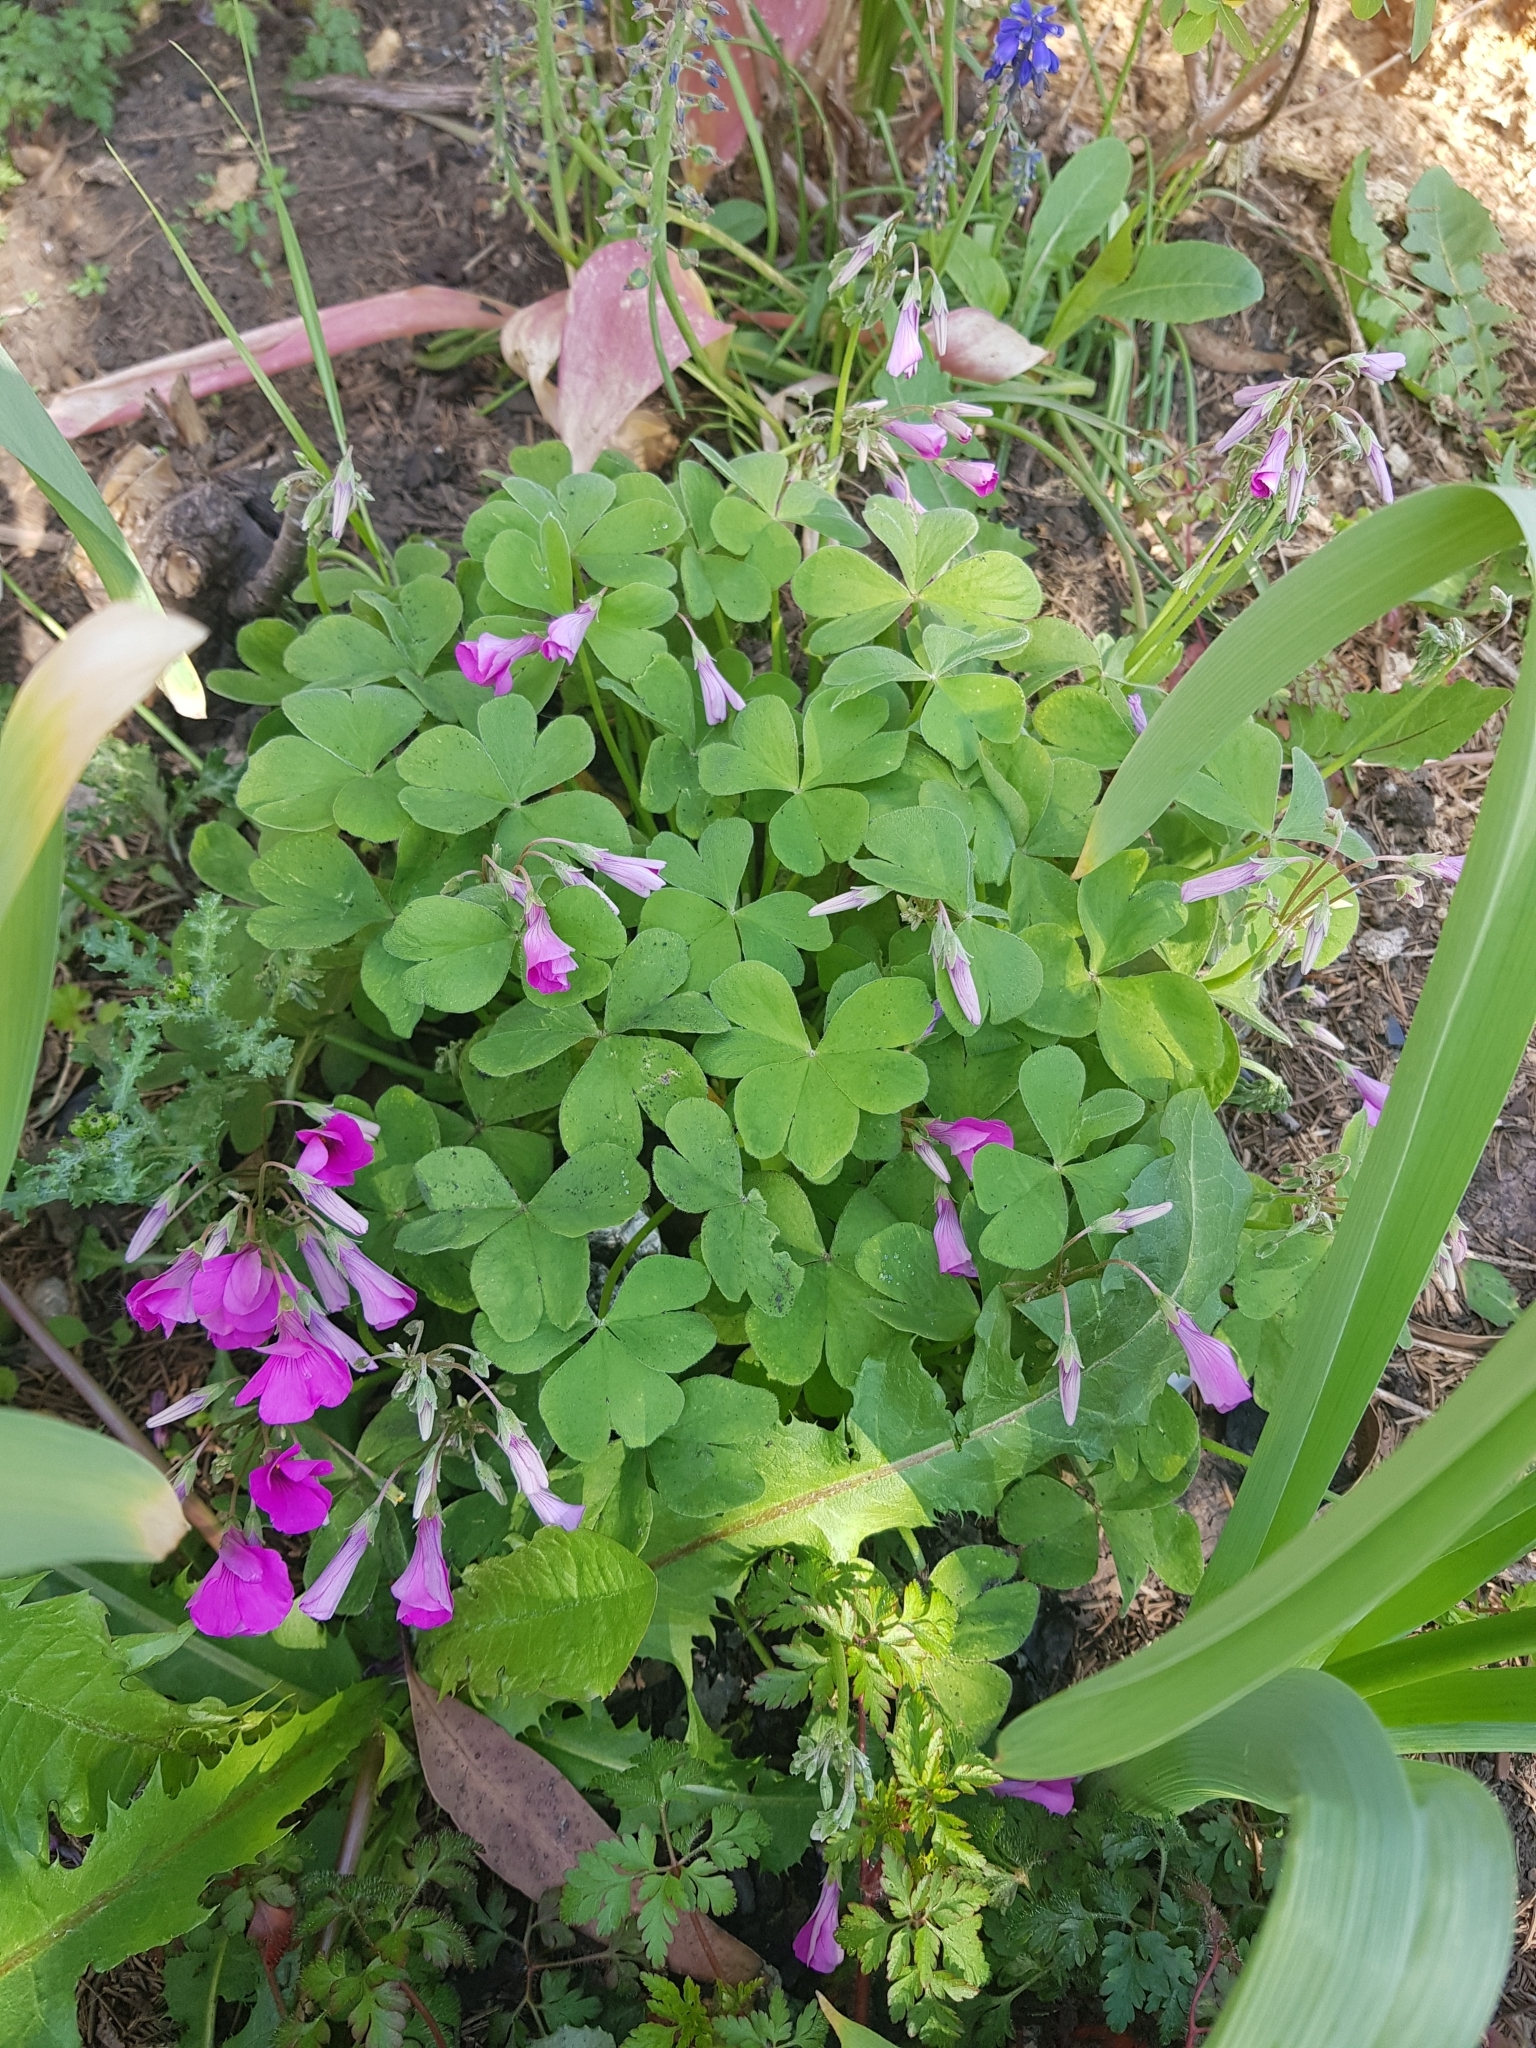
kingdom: Plantae
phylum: Tracheophyta
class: Magnoliopsida
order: Oxalidales
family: Oxalidaceae
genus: Oxalis
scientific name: Oxalis articulata
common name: Pink-sorrel
